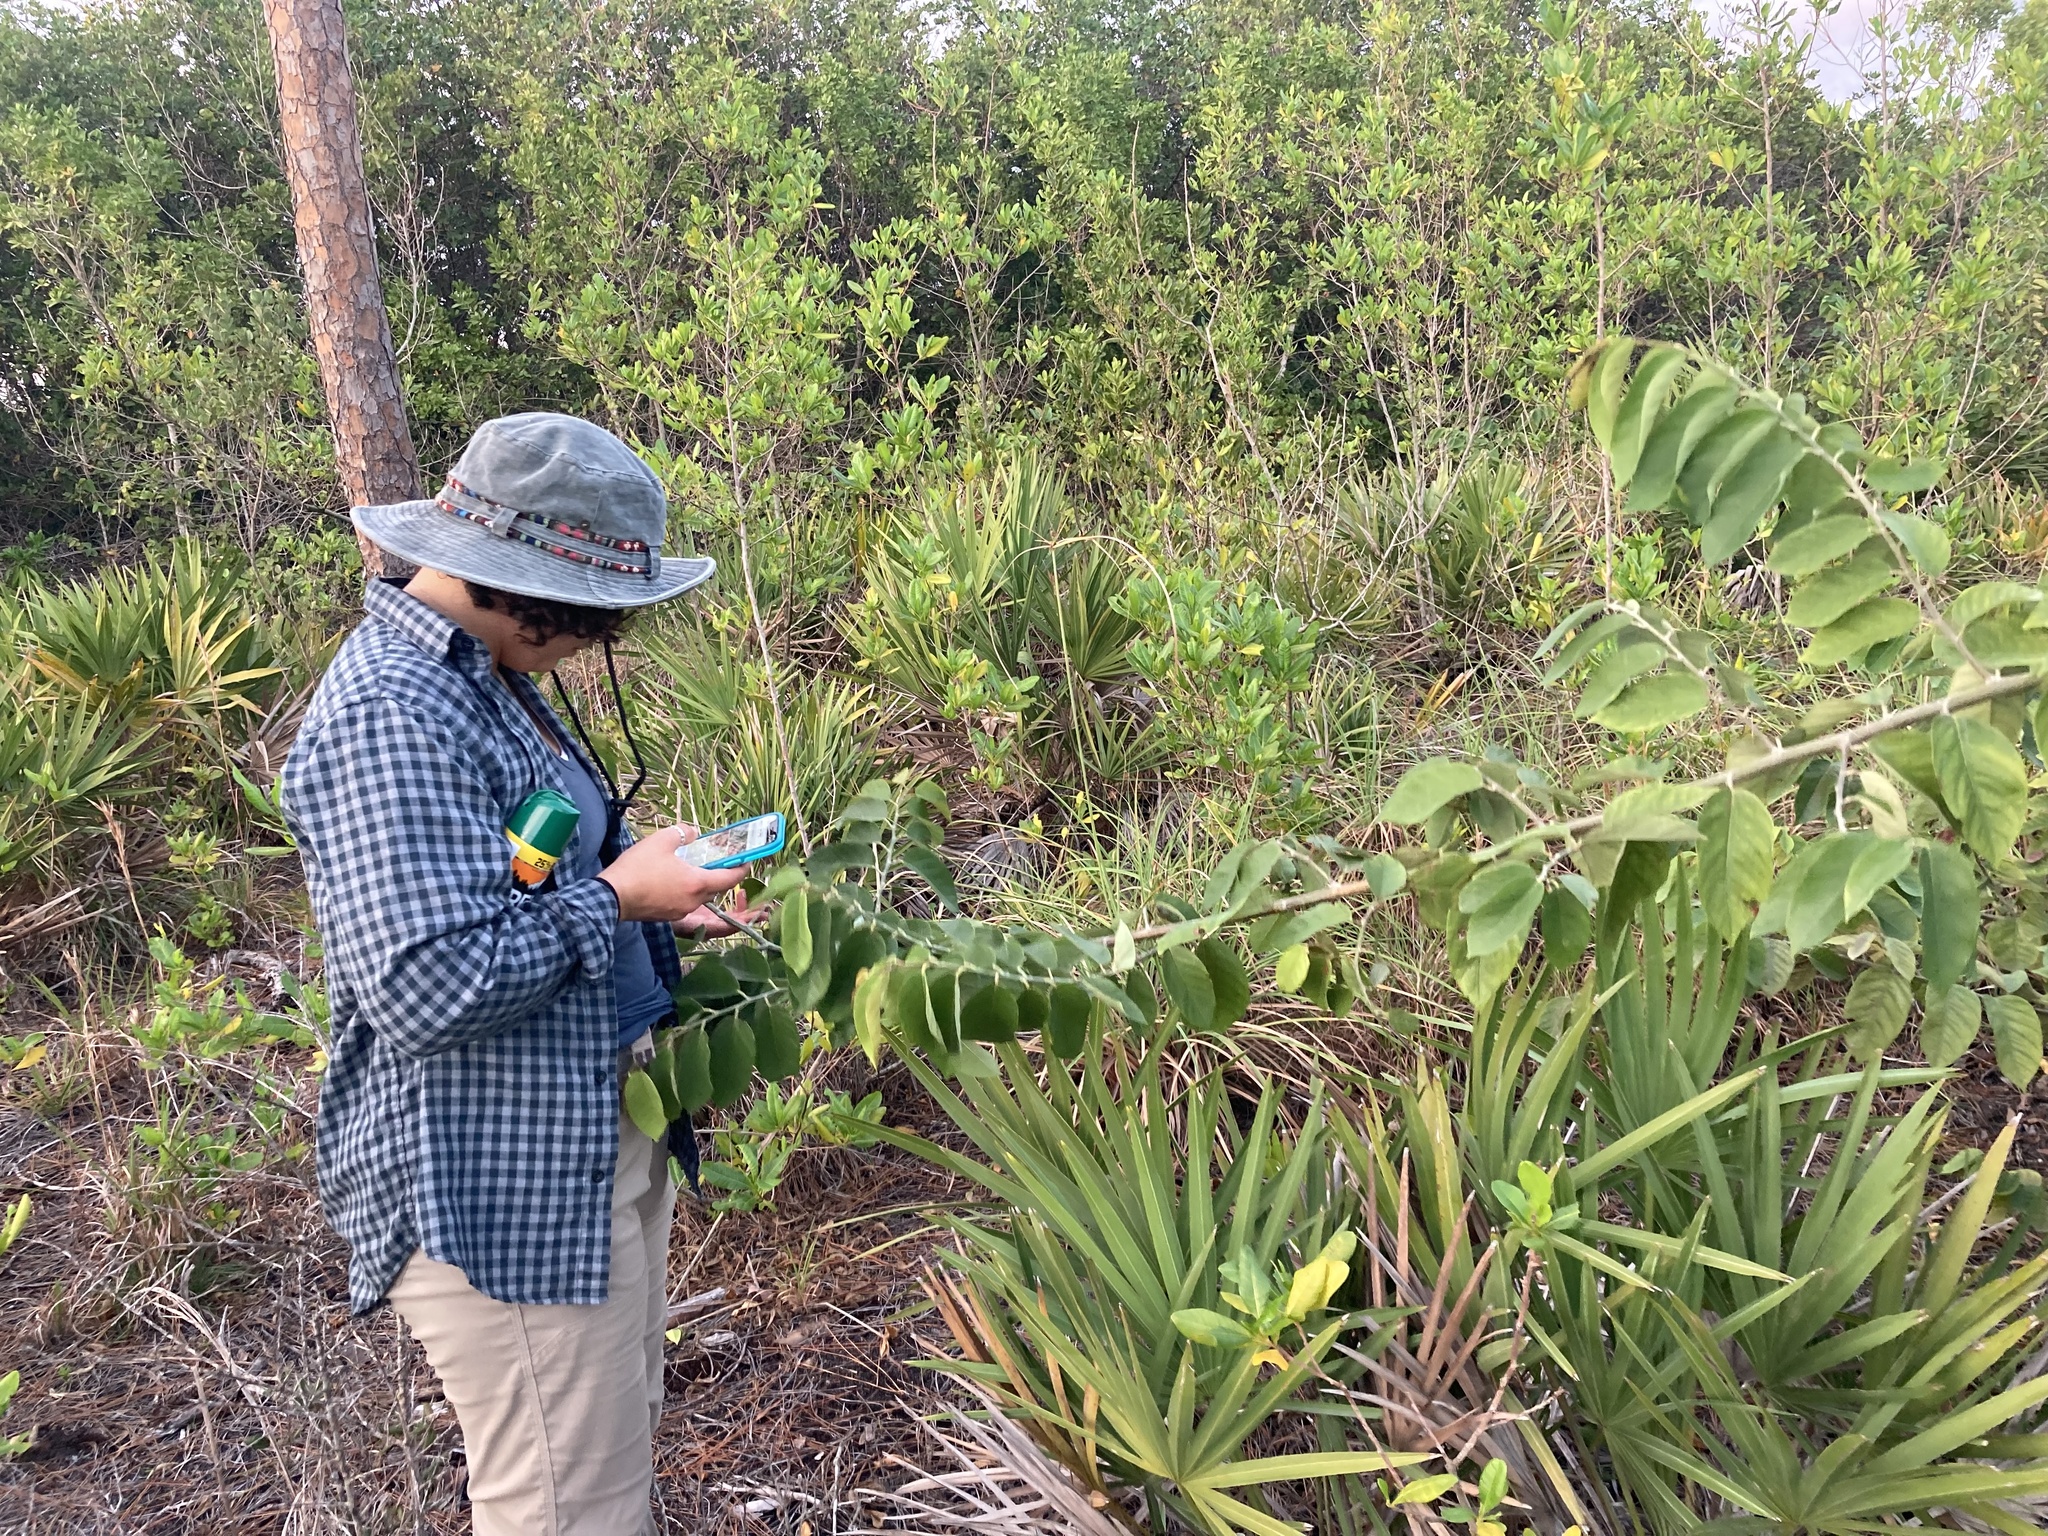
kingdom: Plantae
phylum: Tracheophyta
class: Magnoliopsida
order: Fabales
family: Fabaceae
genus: Dalbergia
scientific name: Dalbergia ecastaphyllum
